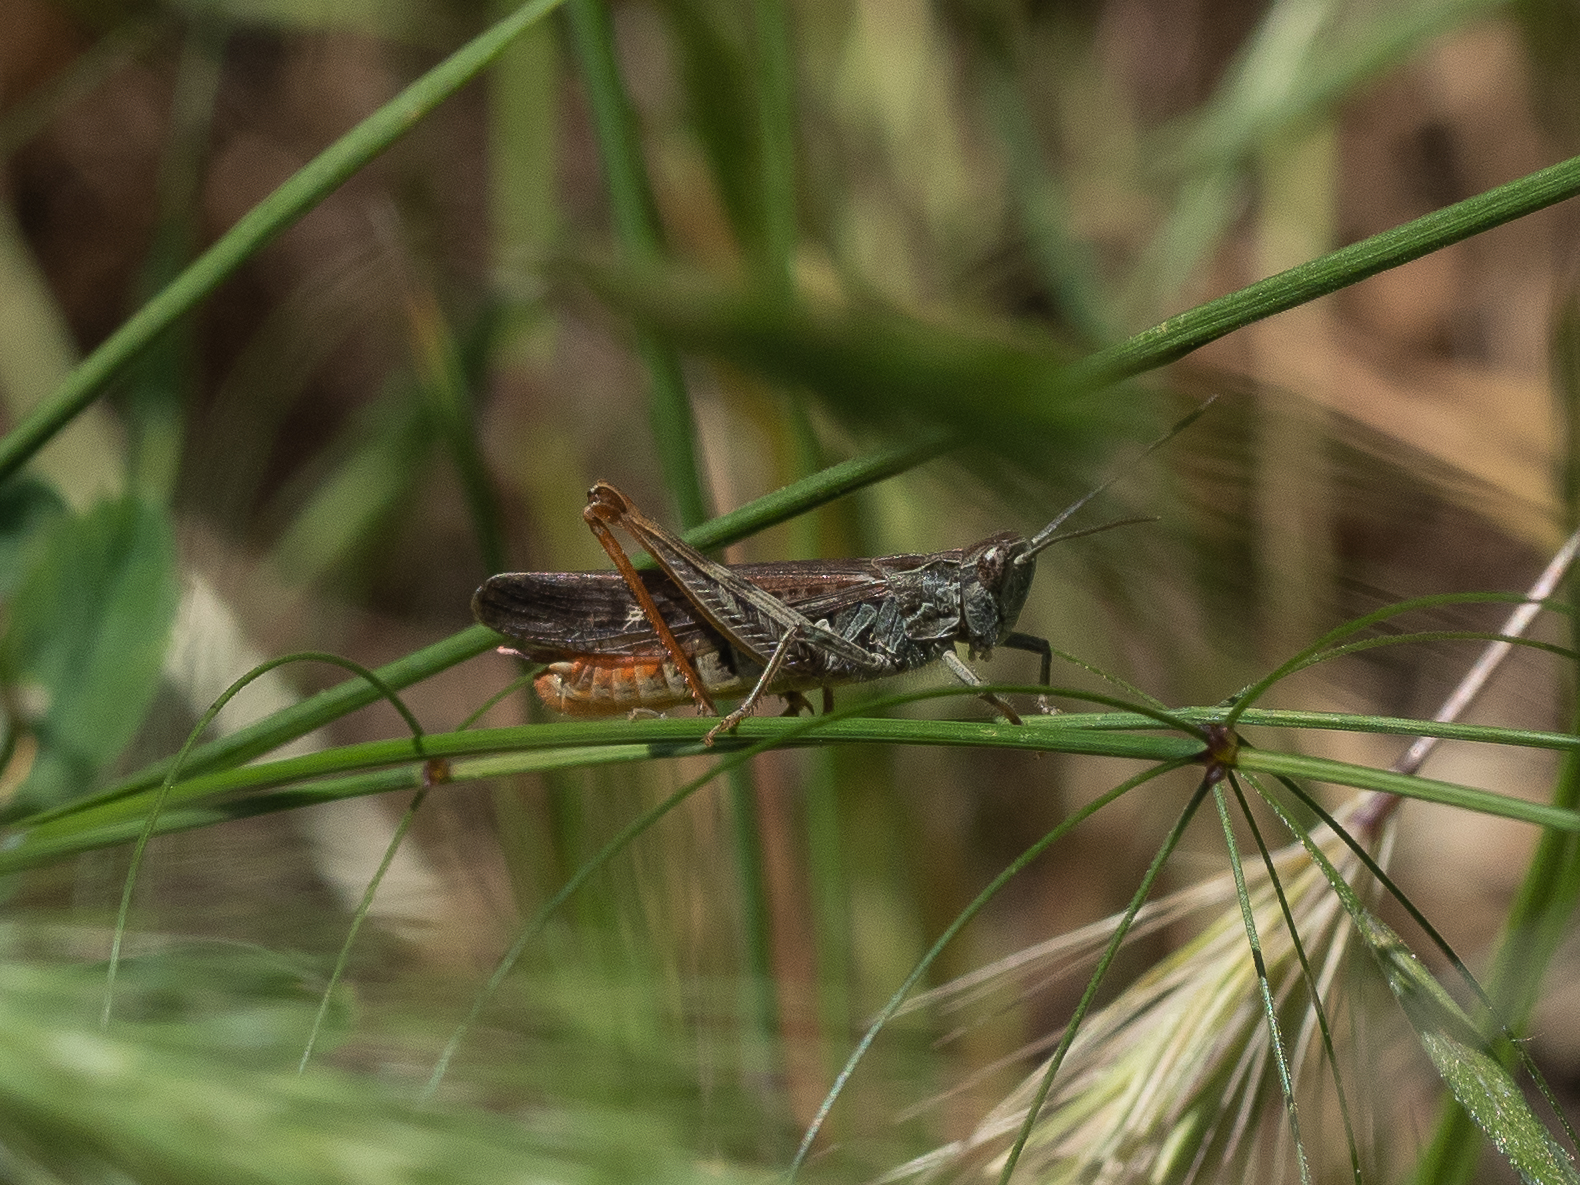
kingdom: Animalia
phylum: Arthropoda
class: Insecta
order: Orthoptera
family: Acrididae
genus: Chorthippus
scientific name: Chorthippus brunneus
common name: Field grasshopper
